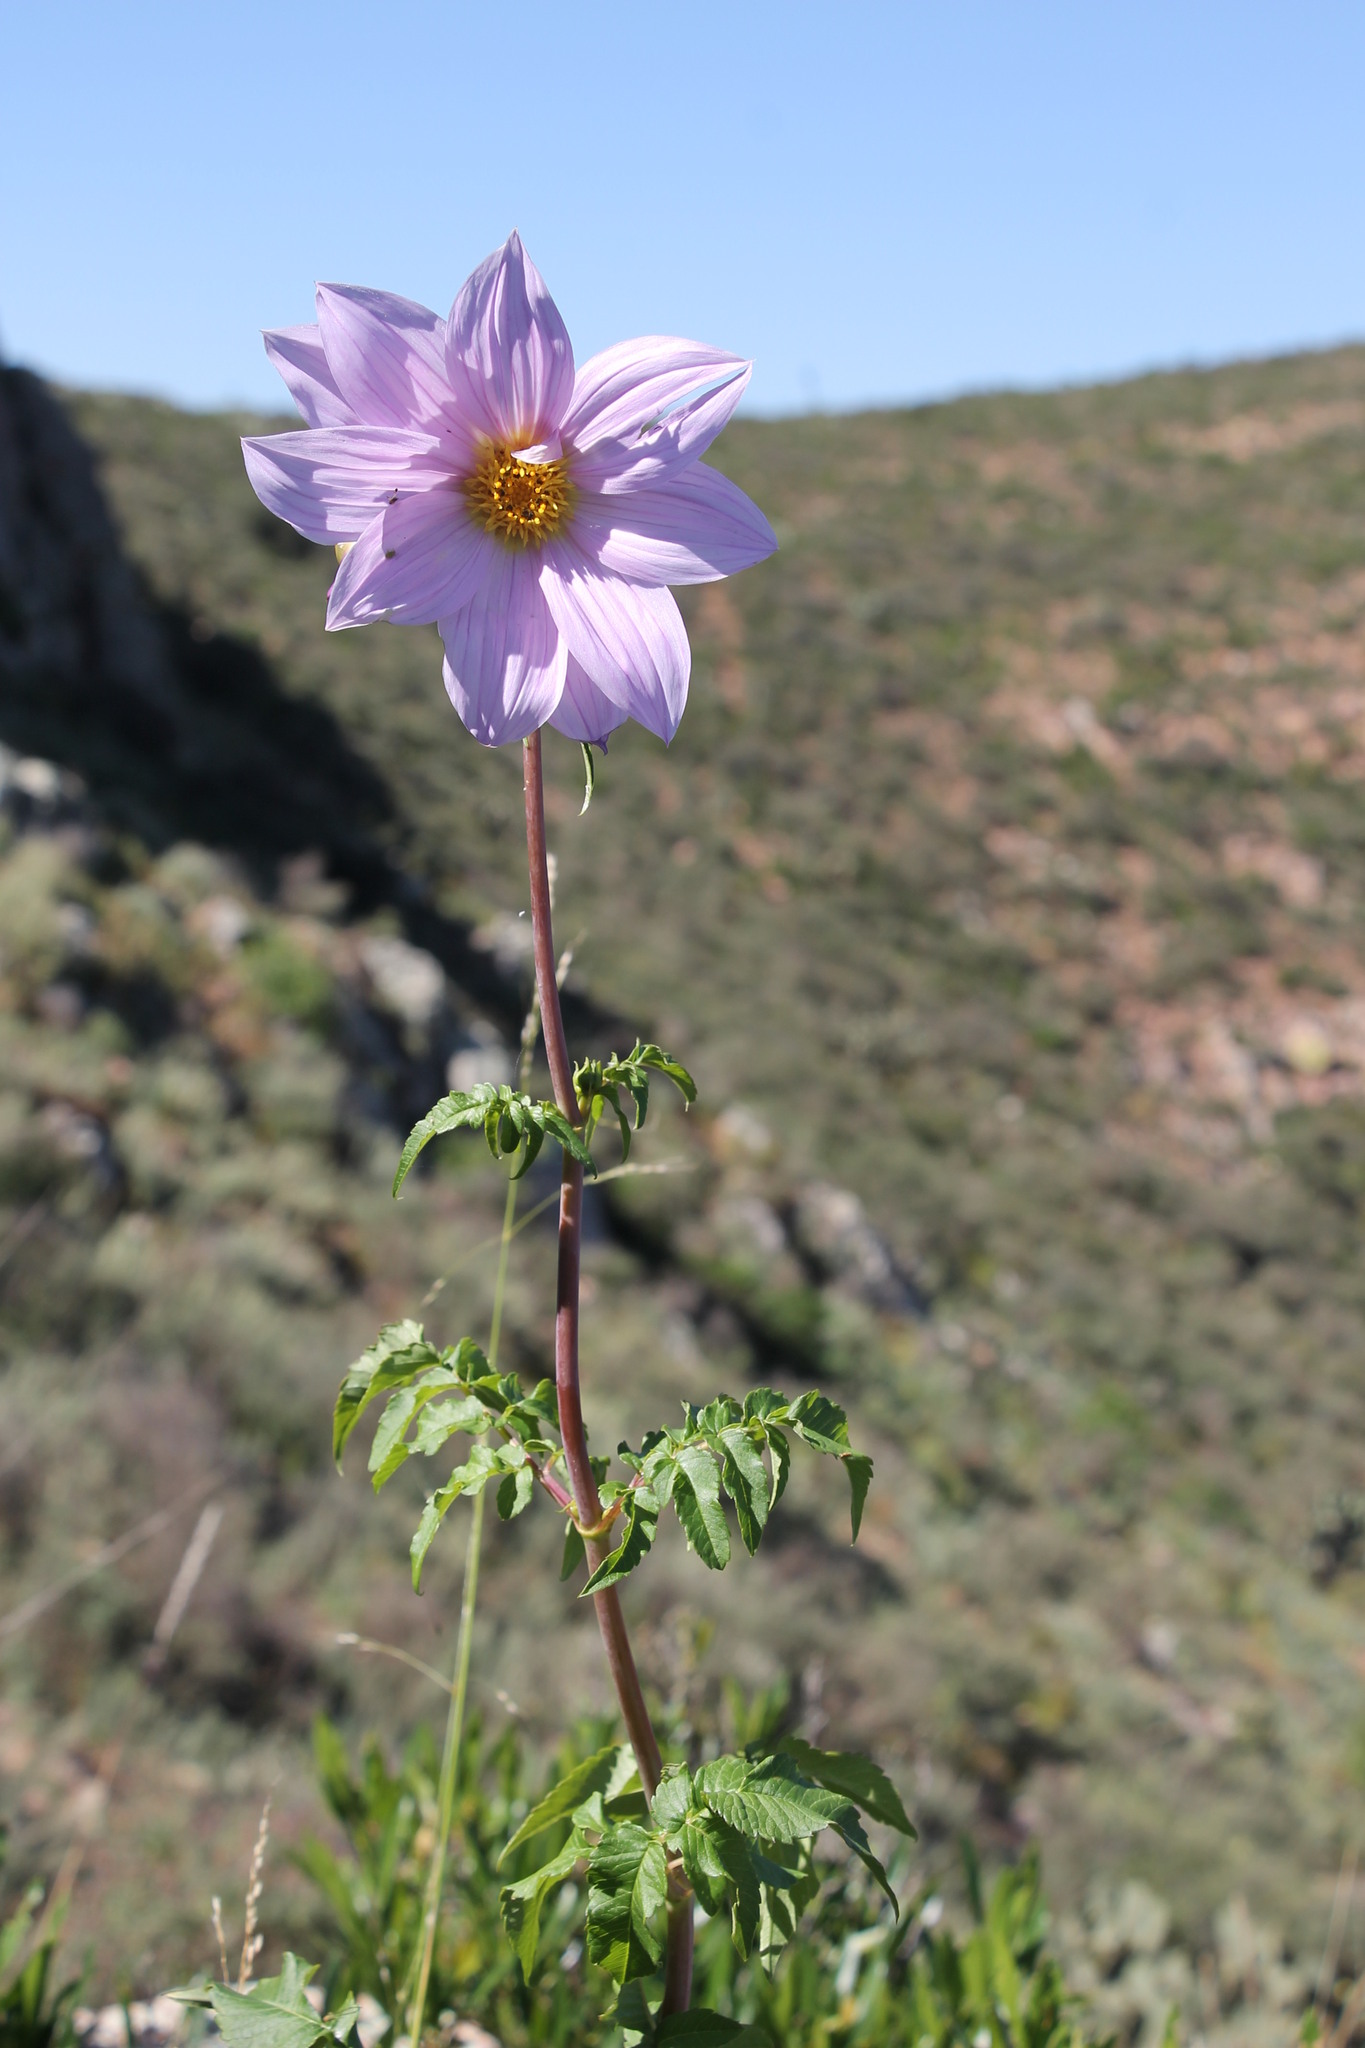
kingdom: Plantae
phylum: Tracheophyta
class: Magnoliopsida
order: Asterales
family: Asteraceae
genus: Dahlia
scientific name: Dahlia spectabilis
